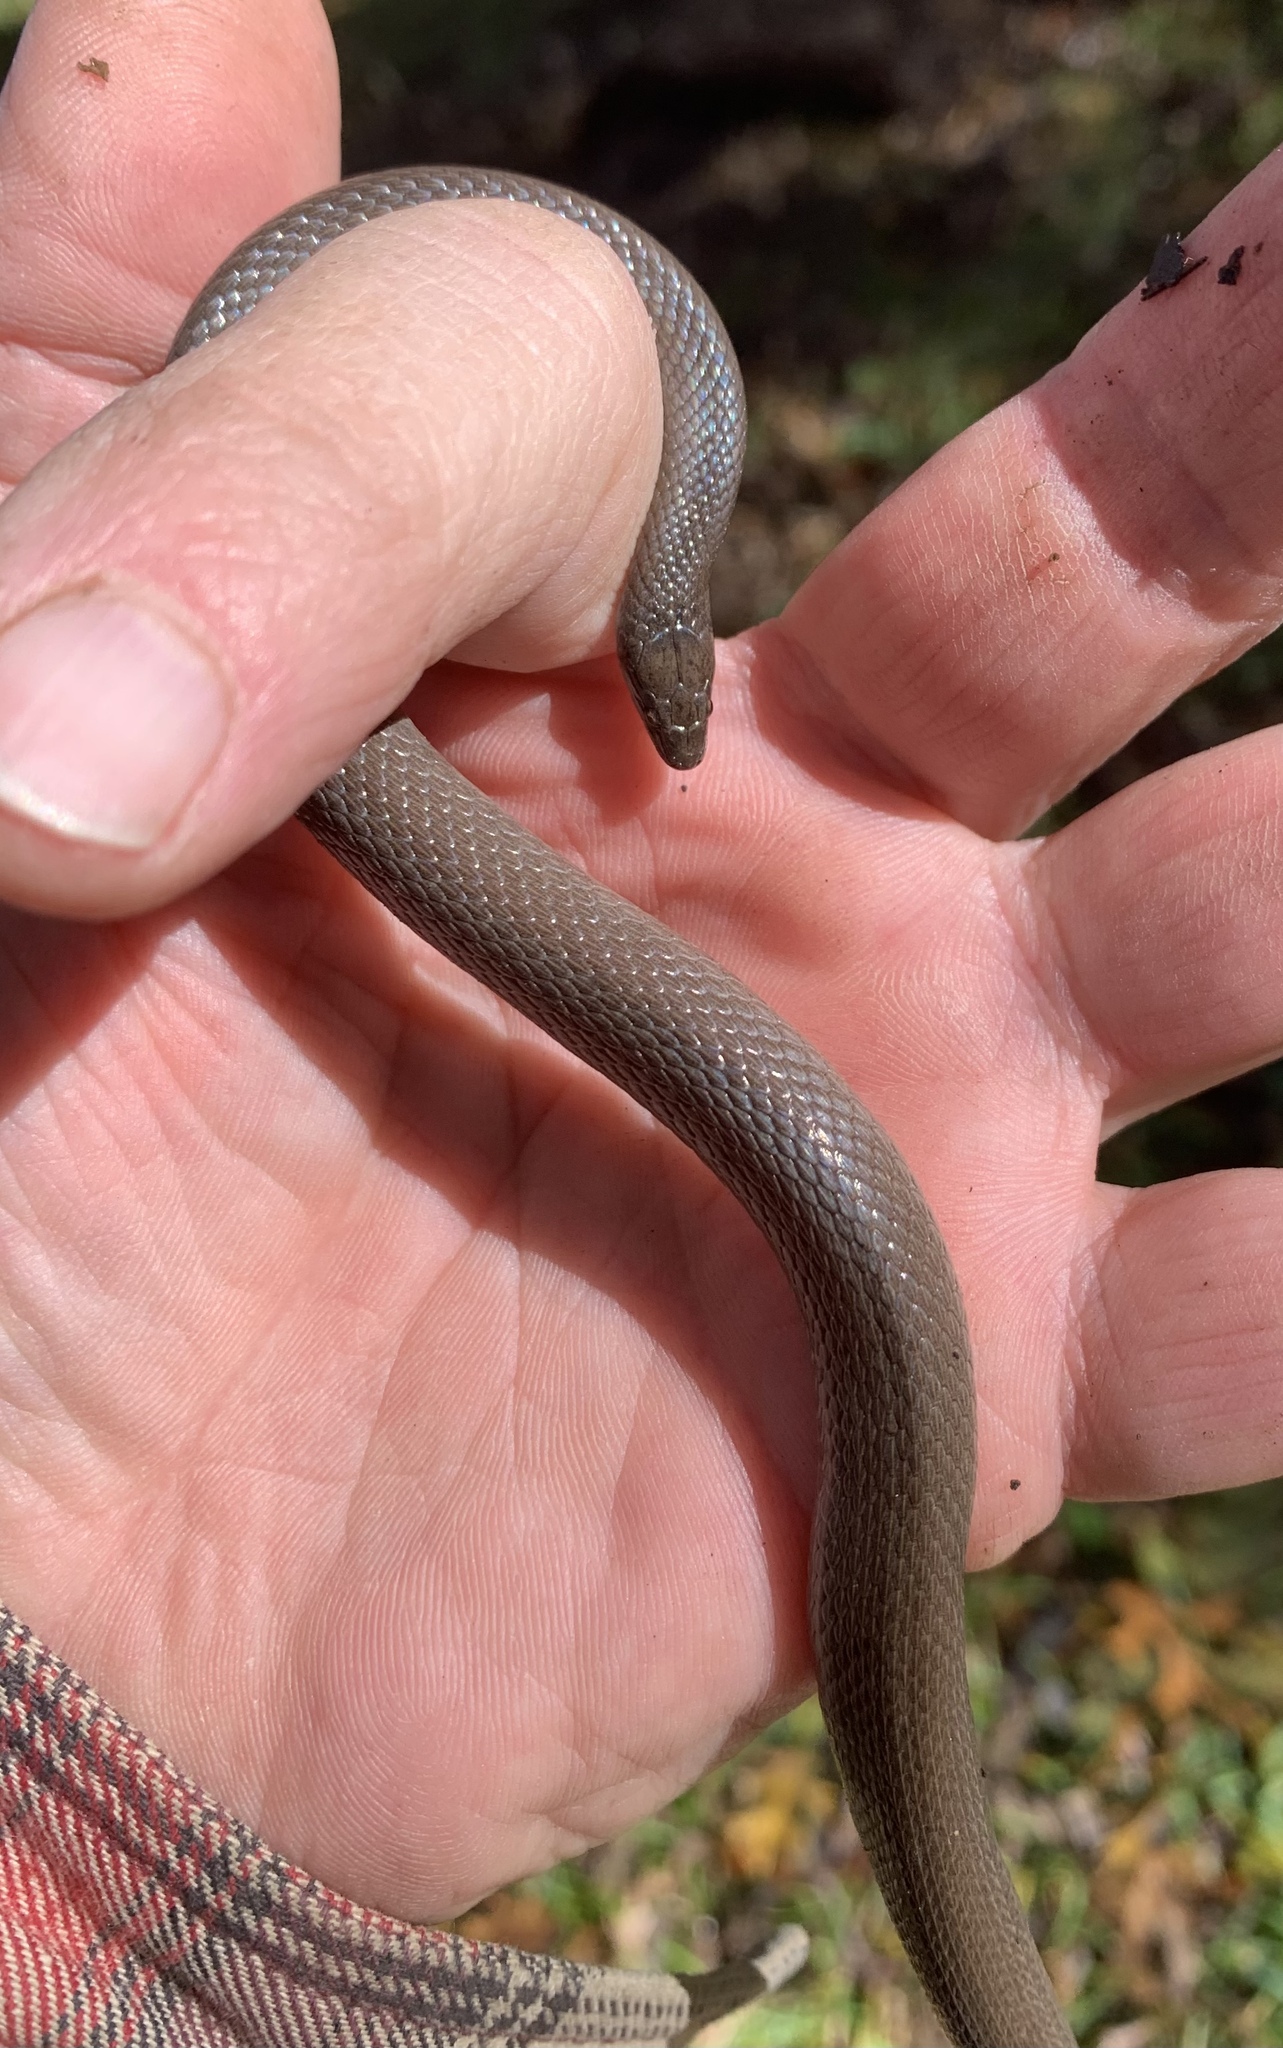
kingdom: Animalia
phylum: Chordata
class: Squamata
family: Colubridae
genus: Haldea
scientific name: Haldea striatula
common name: Rough earth snake
